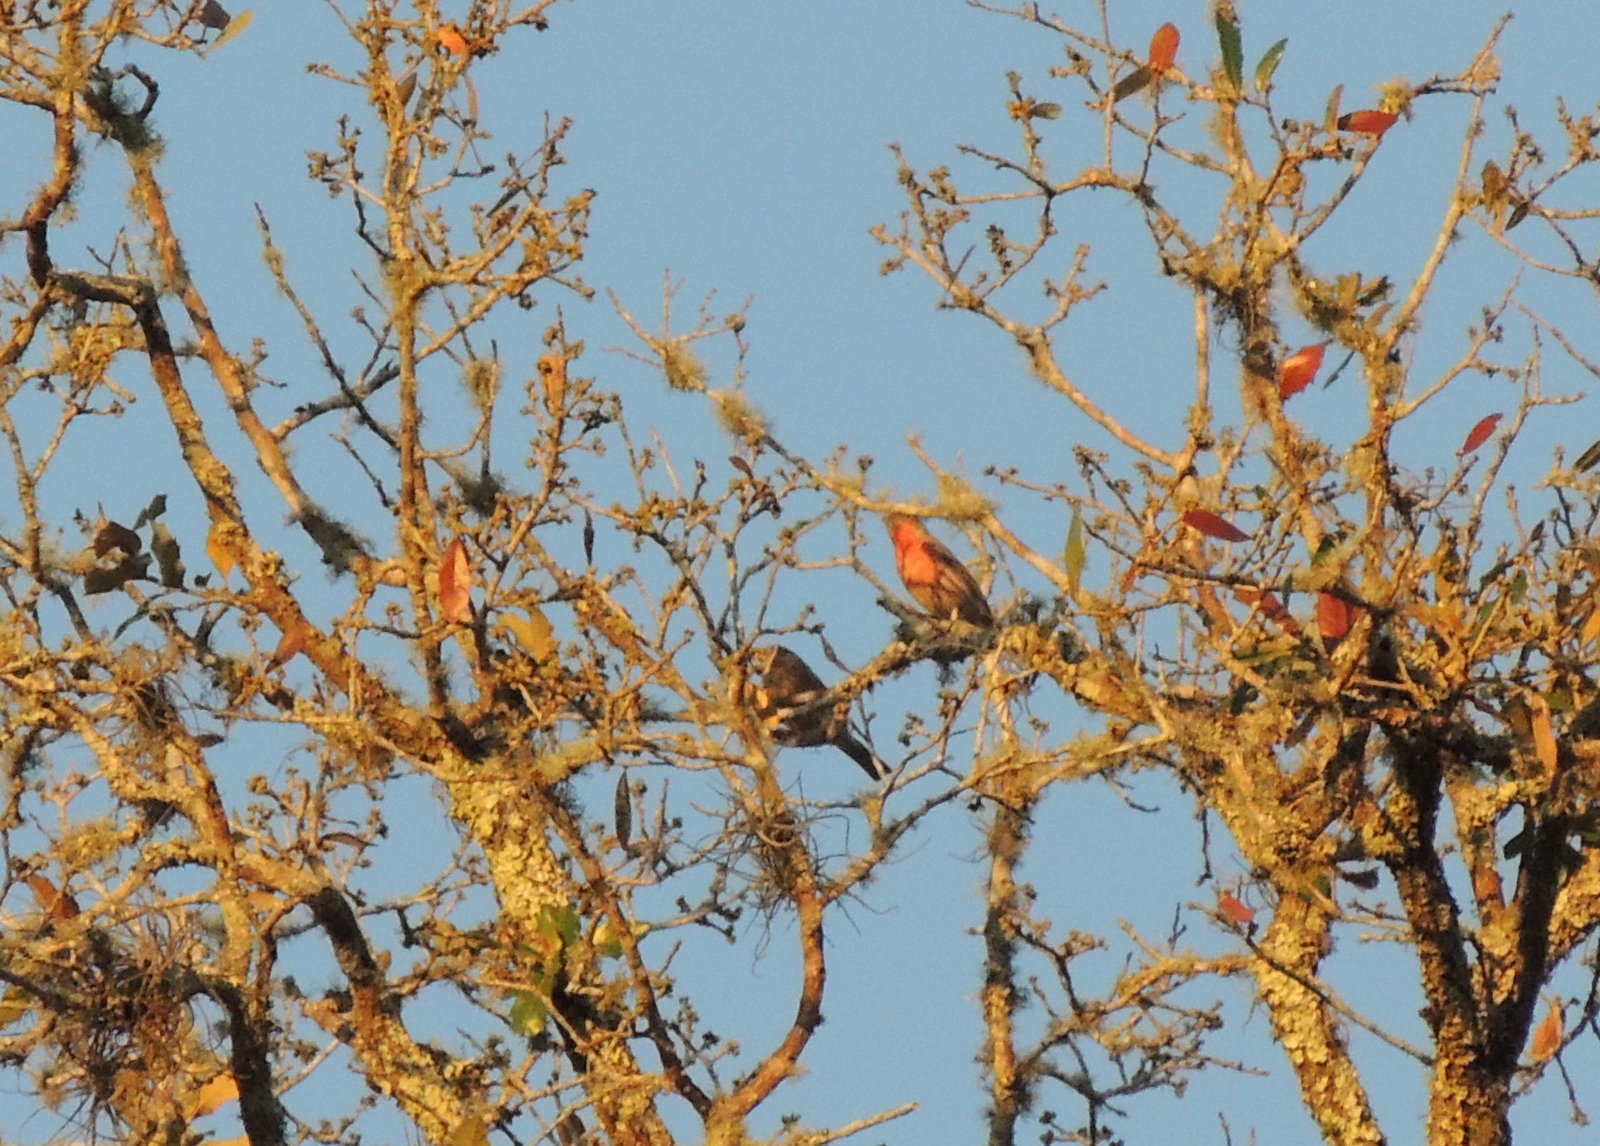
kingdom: Animalia
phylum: Chordata
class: Aves
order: Passeriformes
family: Fringillidae
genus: Haemorhous
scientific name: Haemorhous mexicanus
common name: House finch
